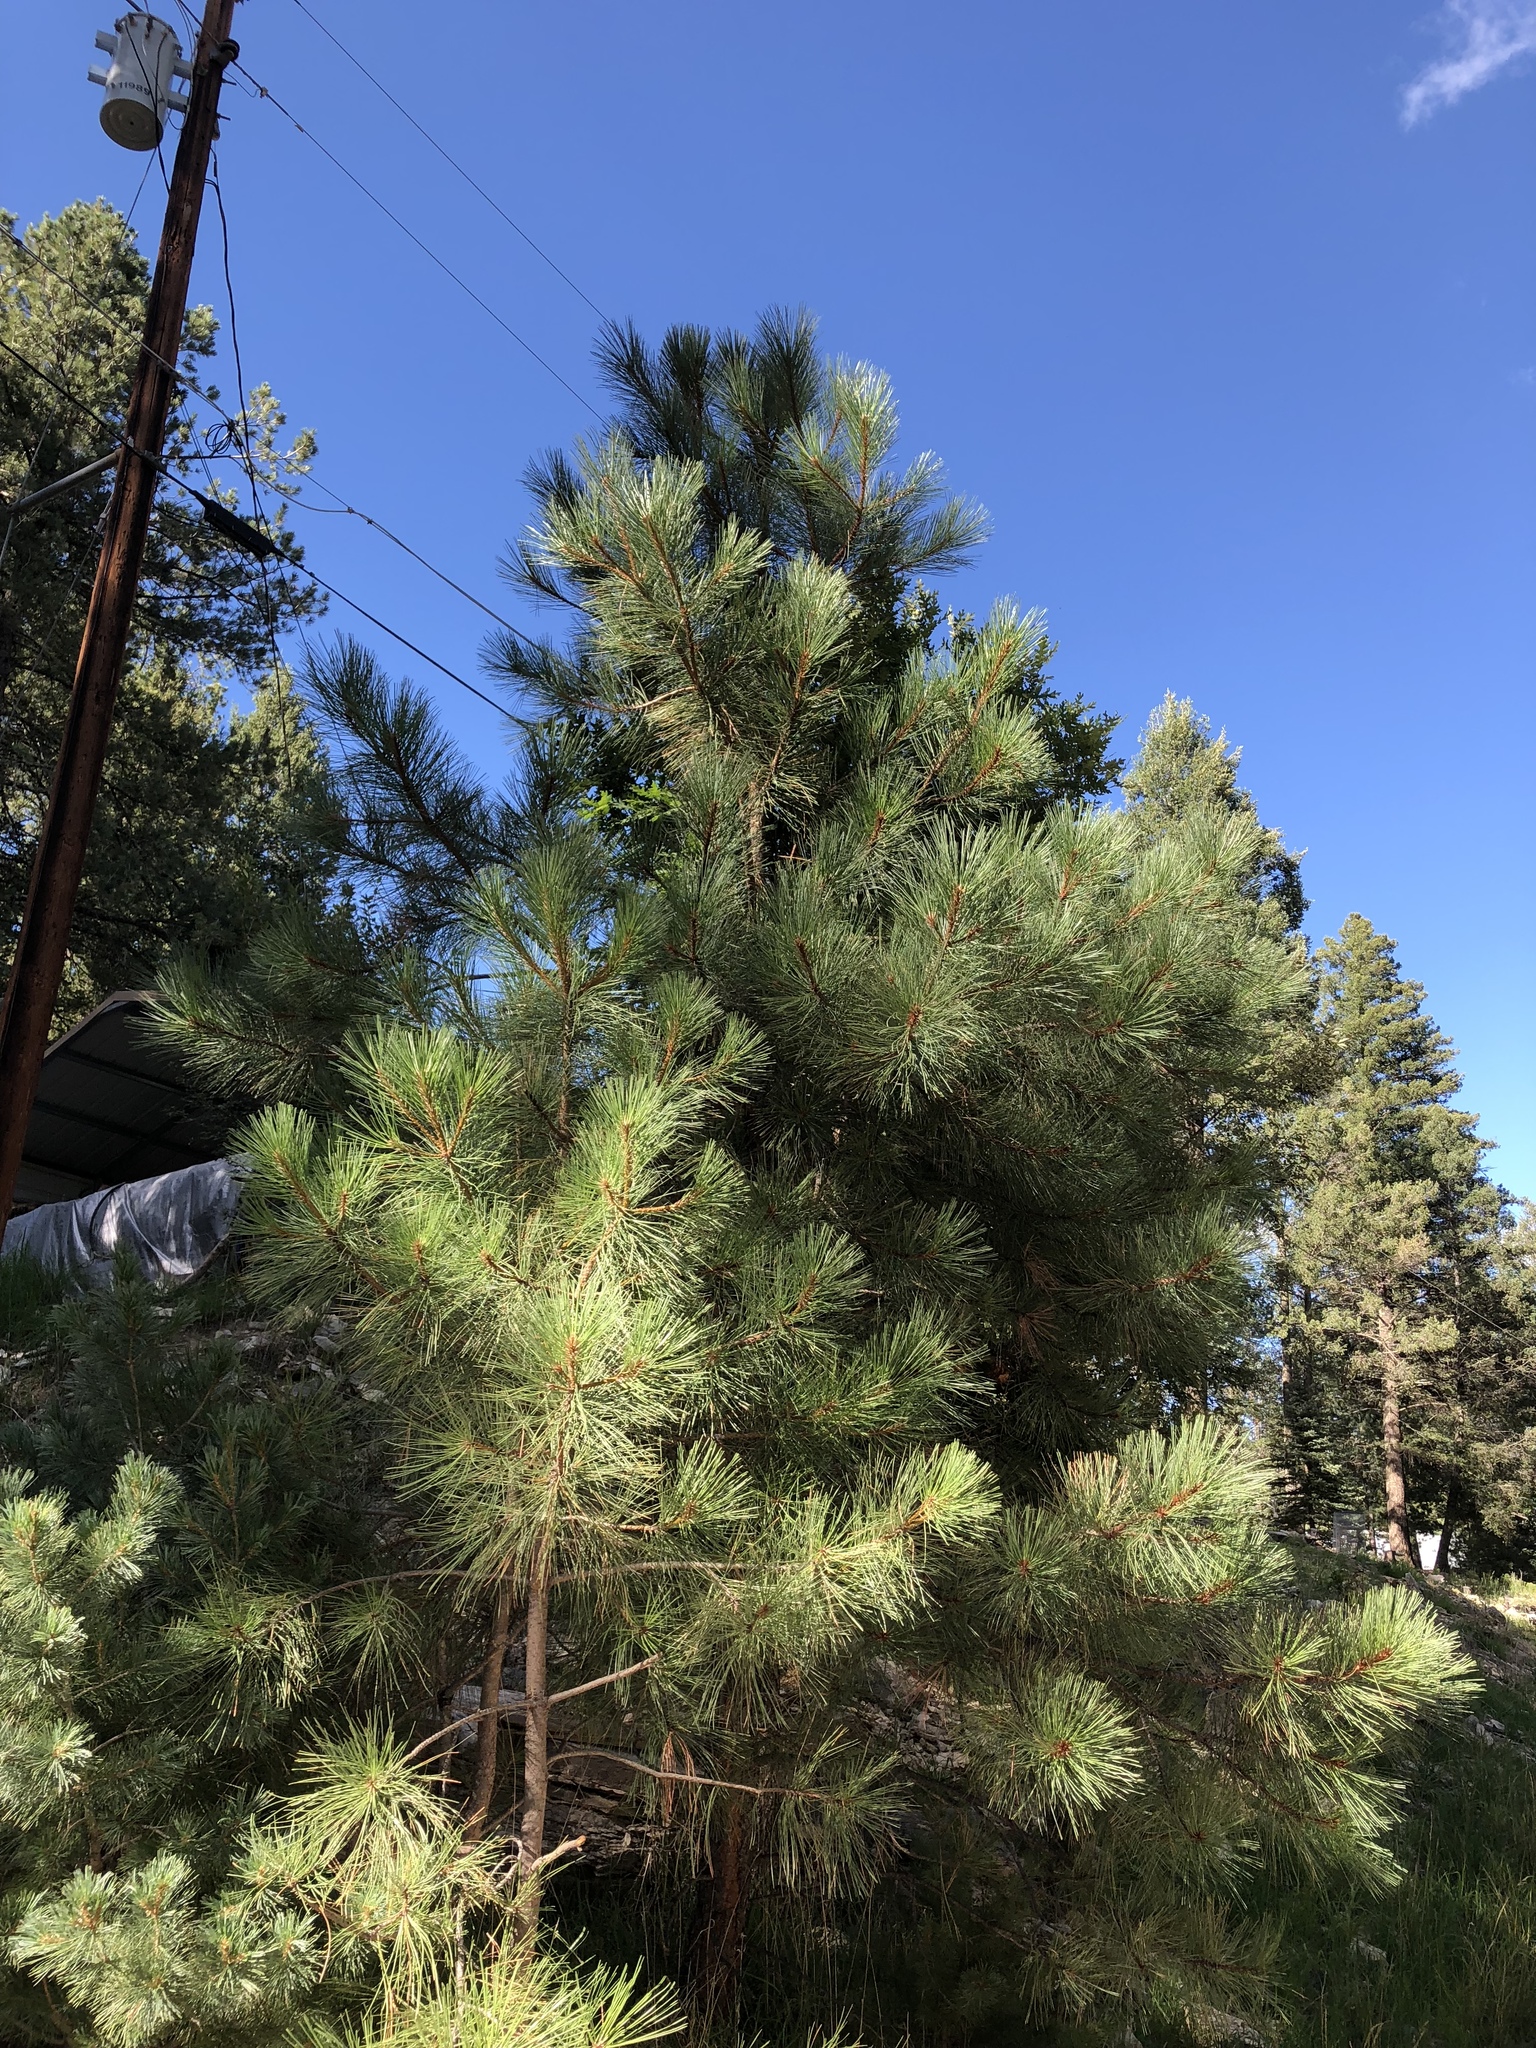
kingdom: Plantae
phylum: Tracheophyta
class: Pinopsida
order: Pinales
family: Pinaceae
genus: Pinus
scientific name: Pinus ponderosa
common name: Western yellow-pine
